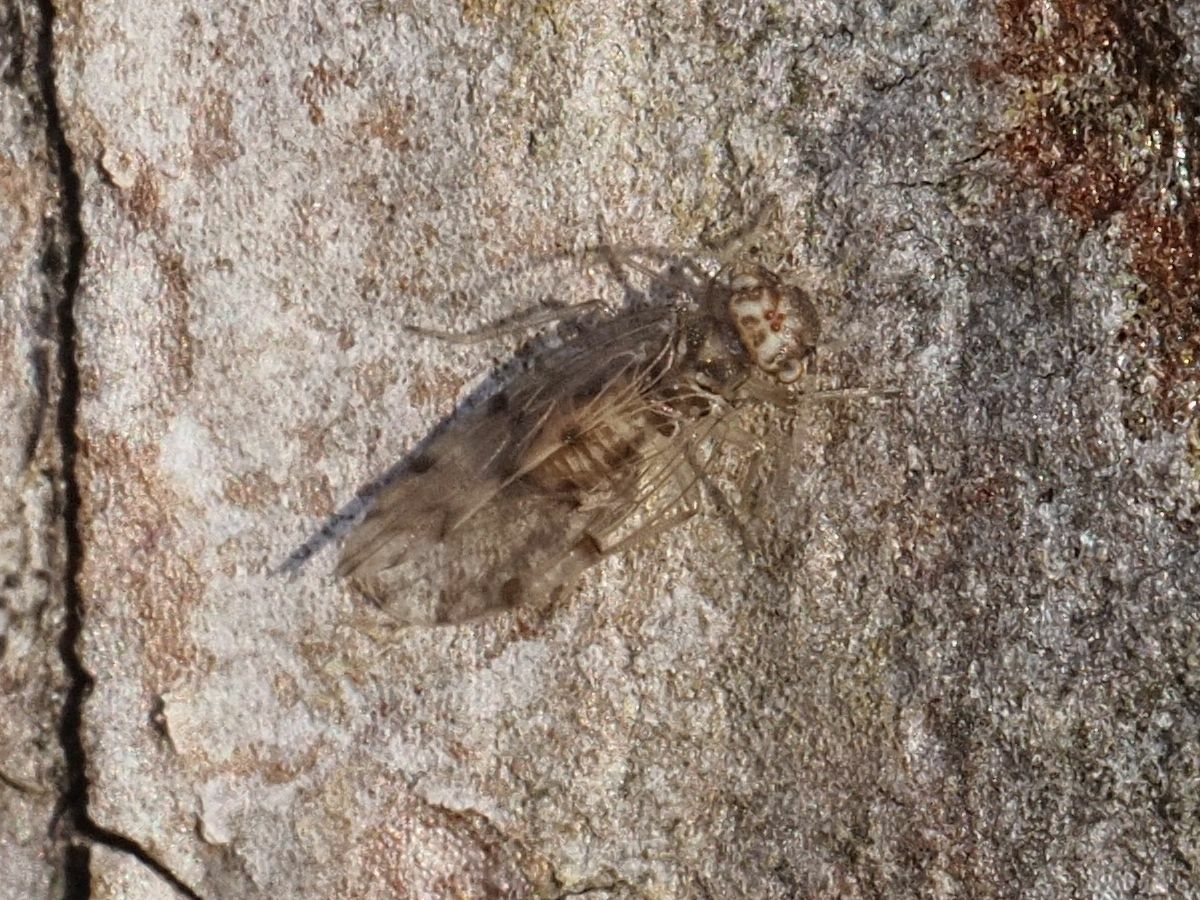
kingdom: Animalia
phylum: Arthropoda
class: Insecta
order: Psocodea
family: Ectopsocidae
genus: Ectopsocus
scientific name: Ectopsocus petersi
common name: Medium-sized bark louse
